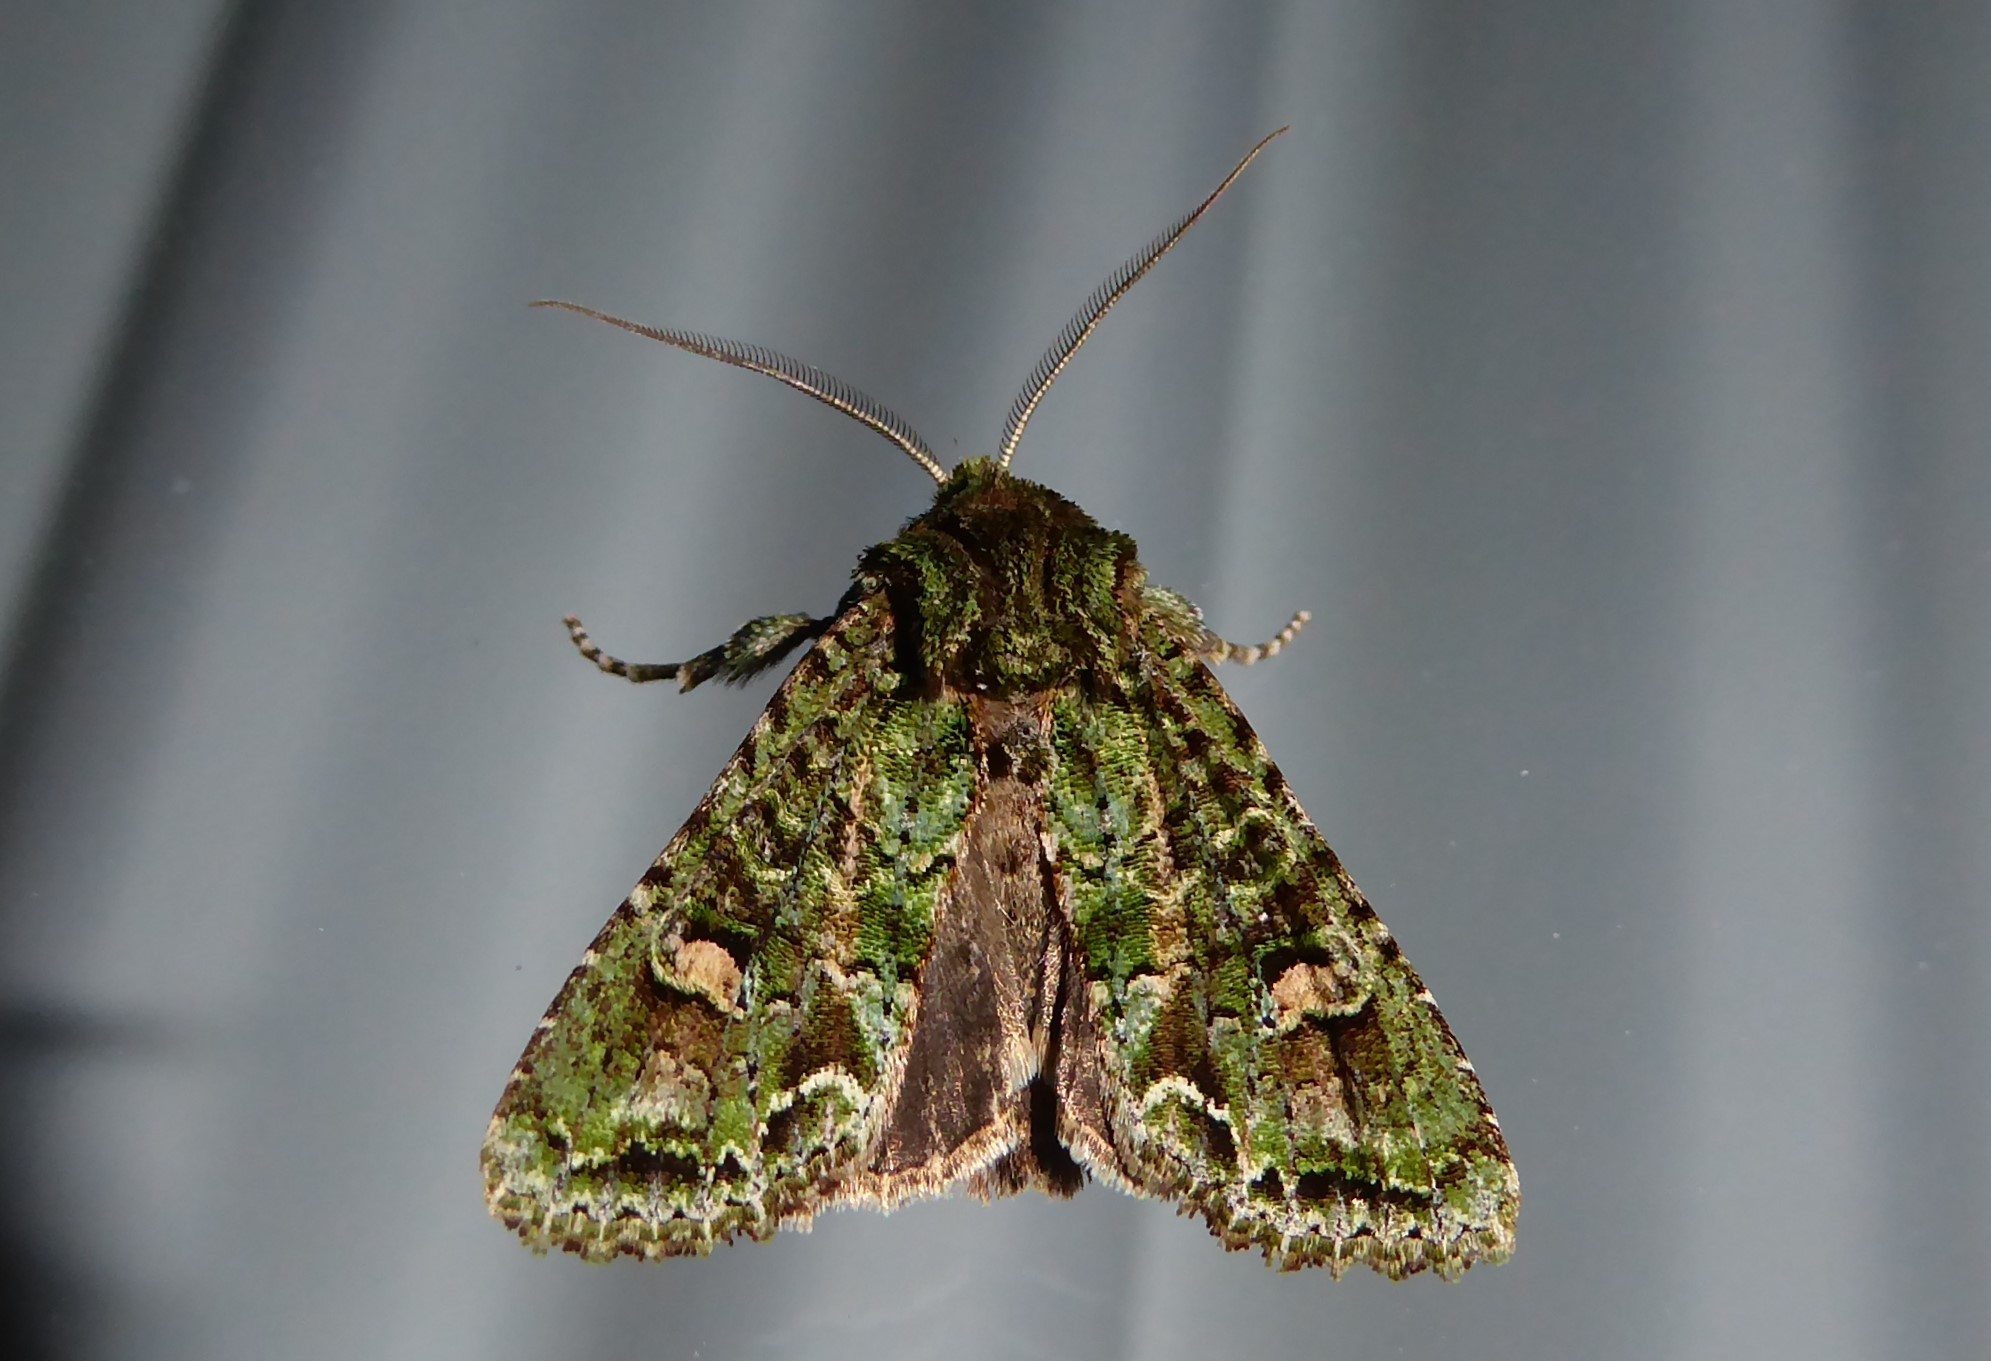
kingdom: Animalia
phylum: Arthropoda
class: Insecta
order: Lepidoptera
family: Noctuidae
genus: Ichneutica
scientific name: Ichneutica
